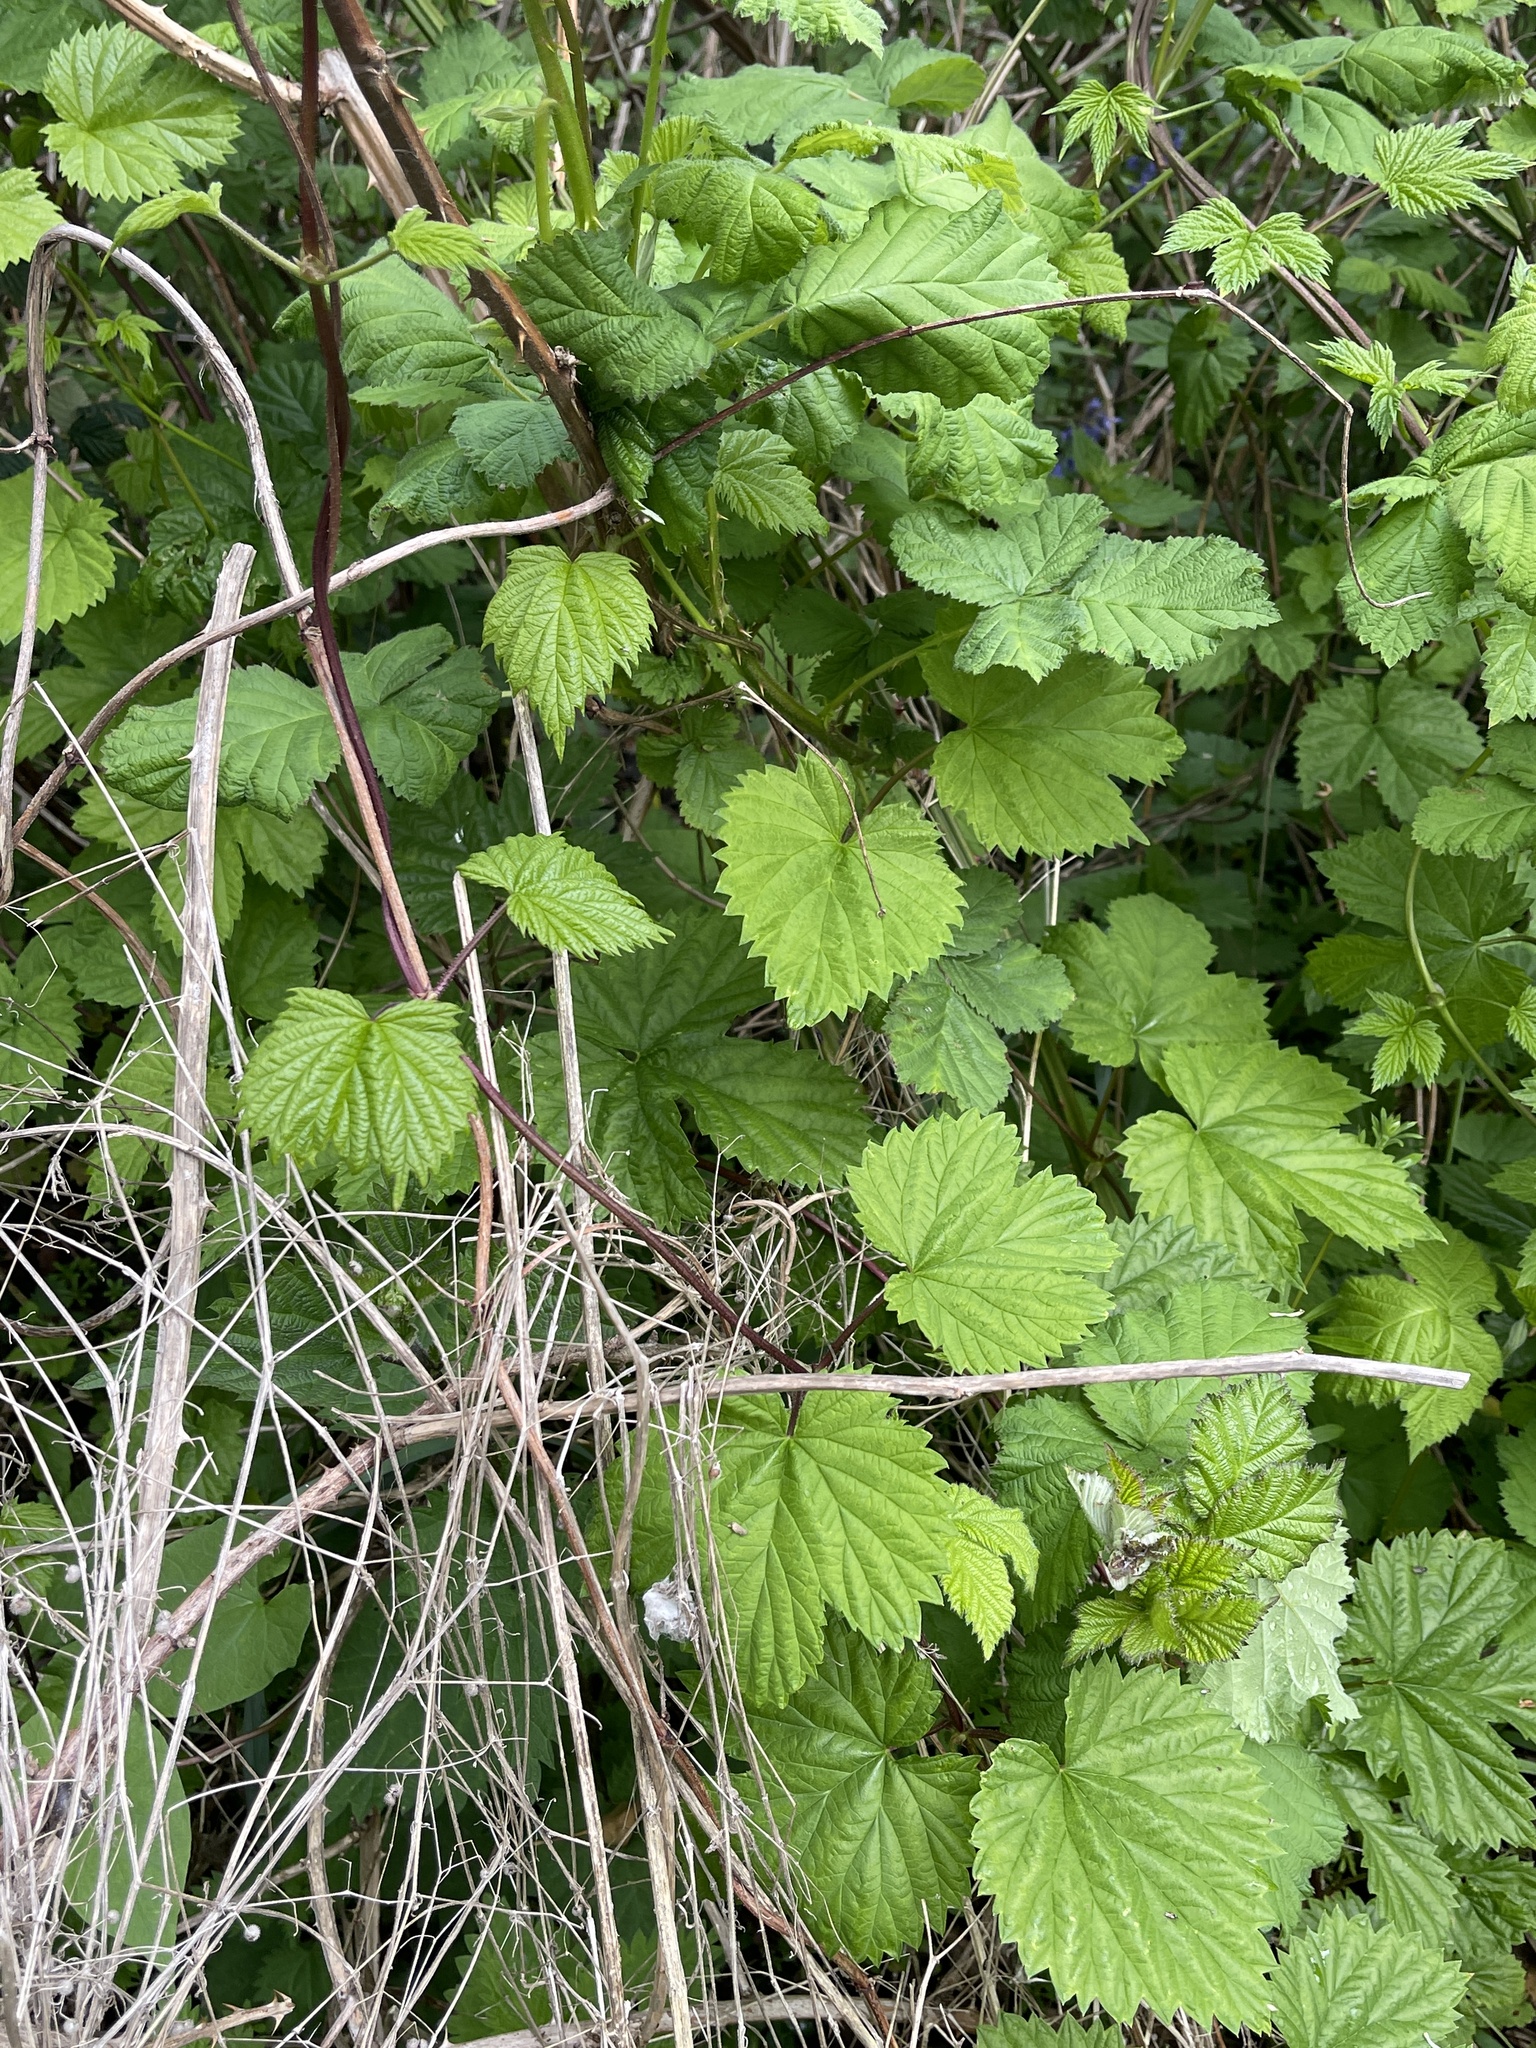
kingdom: Plantae
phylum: Tracheophyta
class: Magnoliopsida
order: Rosales
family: Cannabaceae
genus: Humulus
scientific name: Humulus lupulus
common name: Hop
